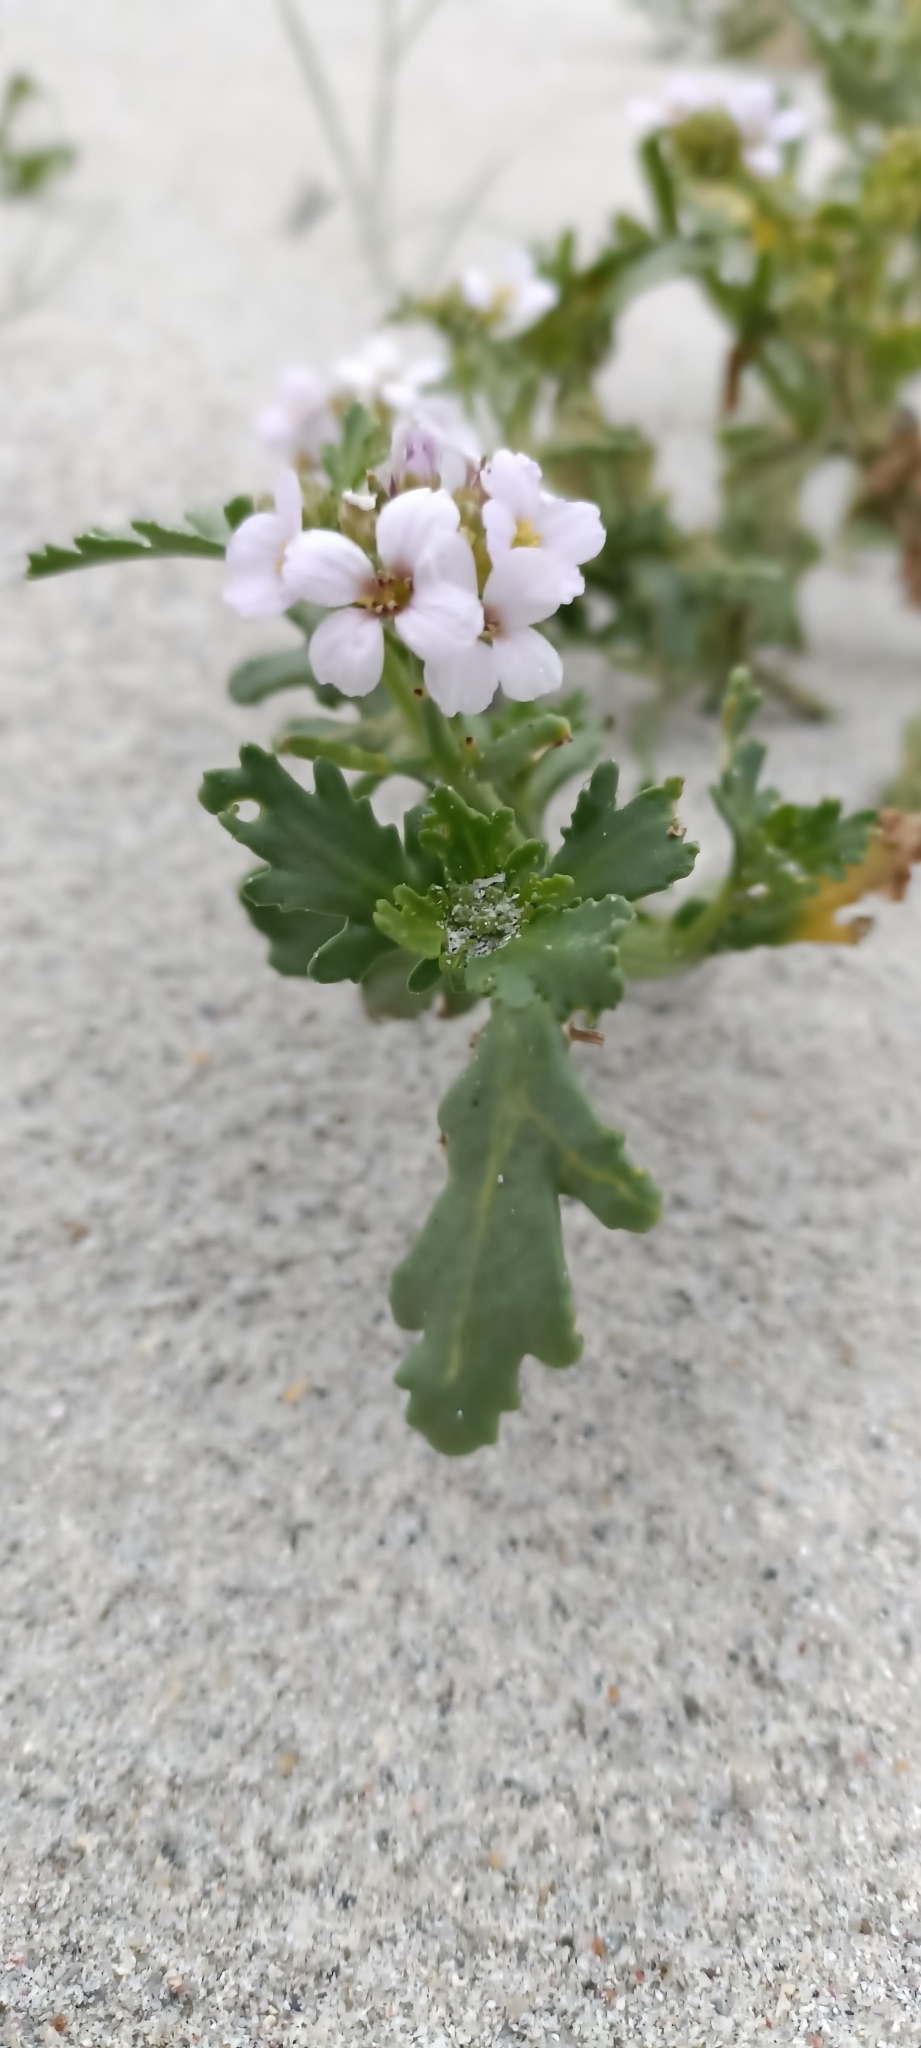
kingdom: Plantae
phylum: Tracheophyta
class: Magnoliopsida
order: Brassicales
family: Brassicaceae
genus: Cakile
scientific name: Cakile maritima
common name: Sea rocket
